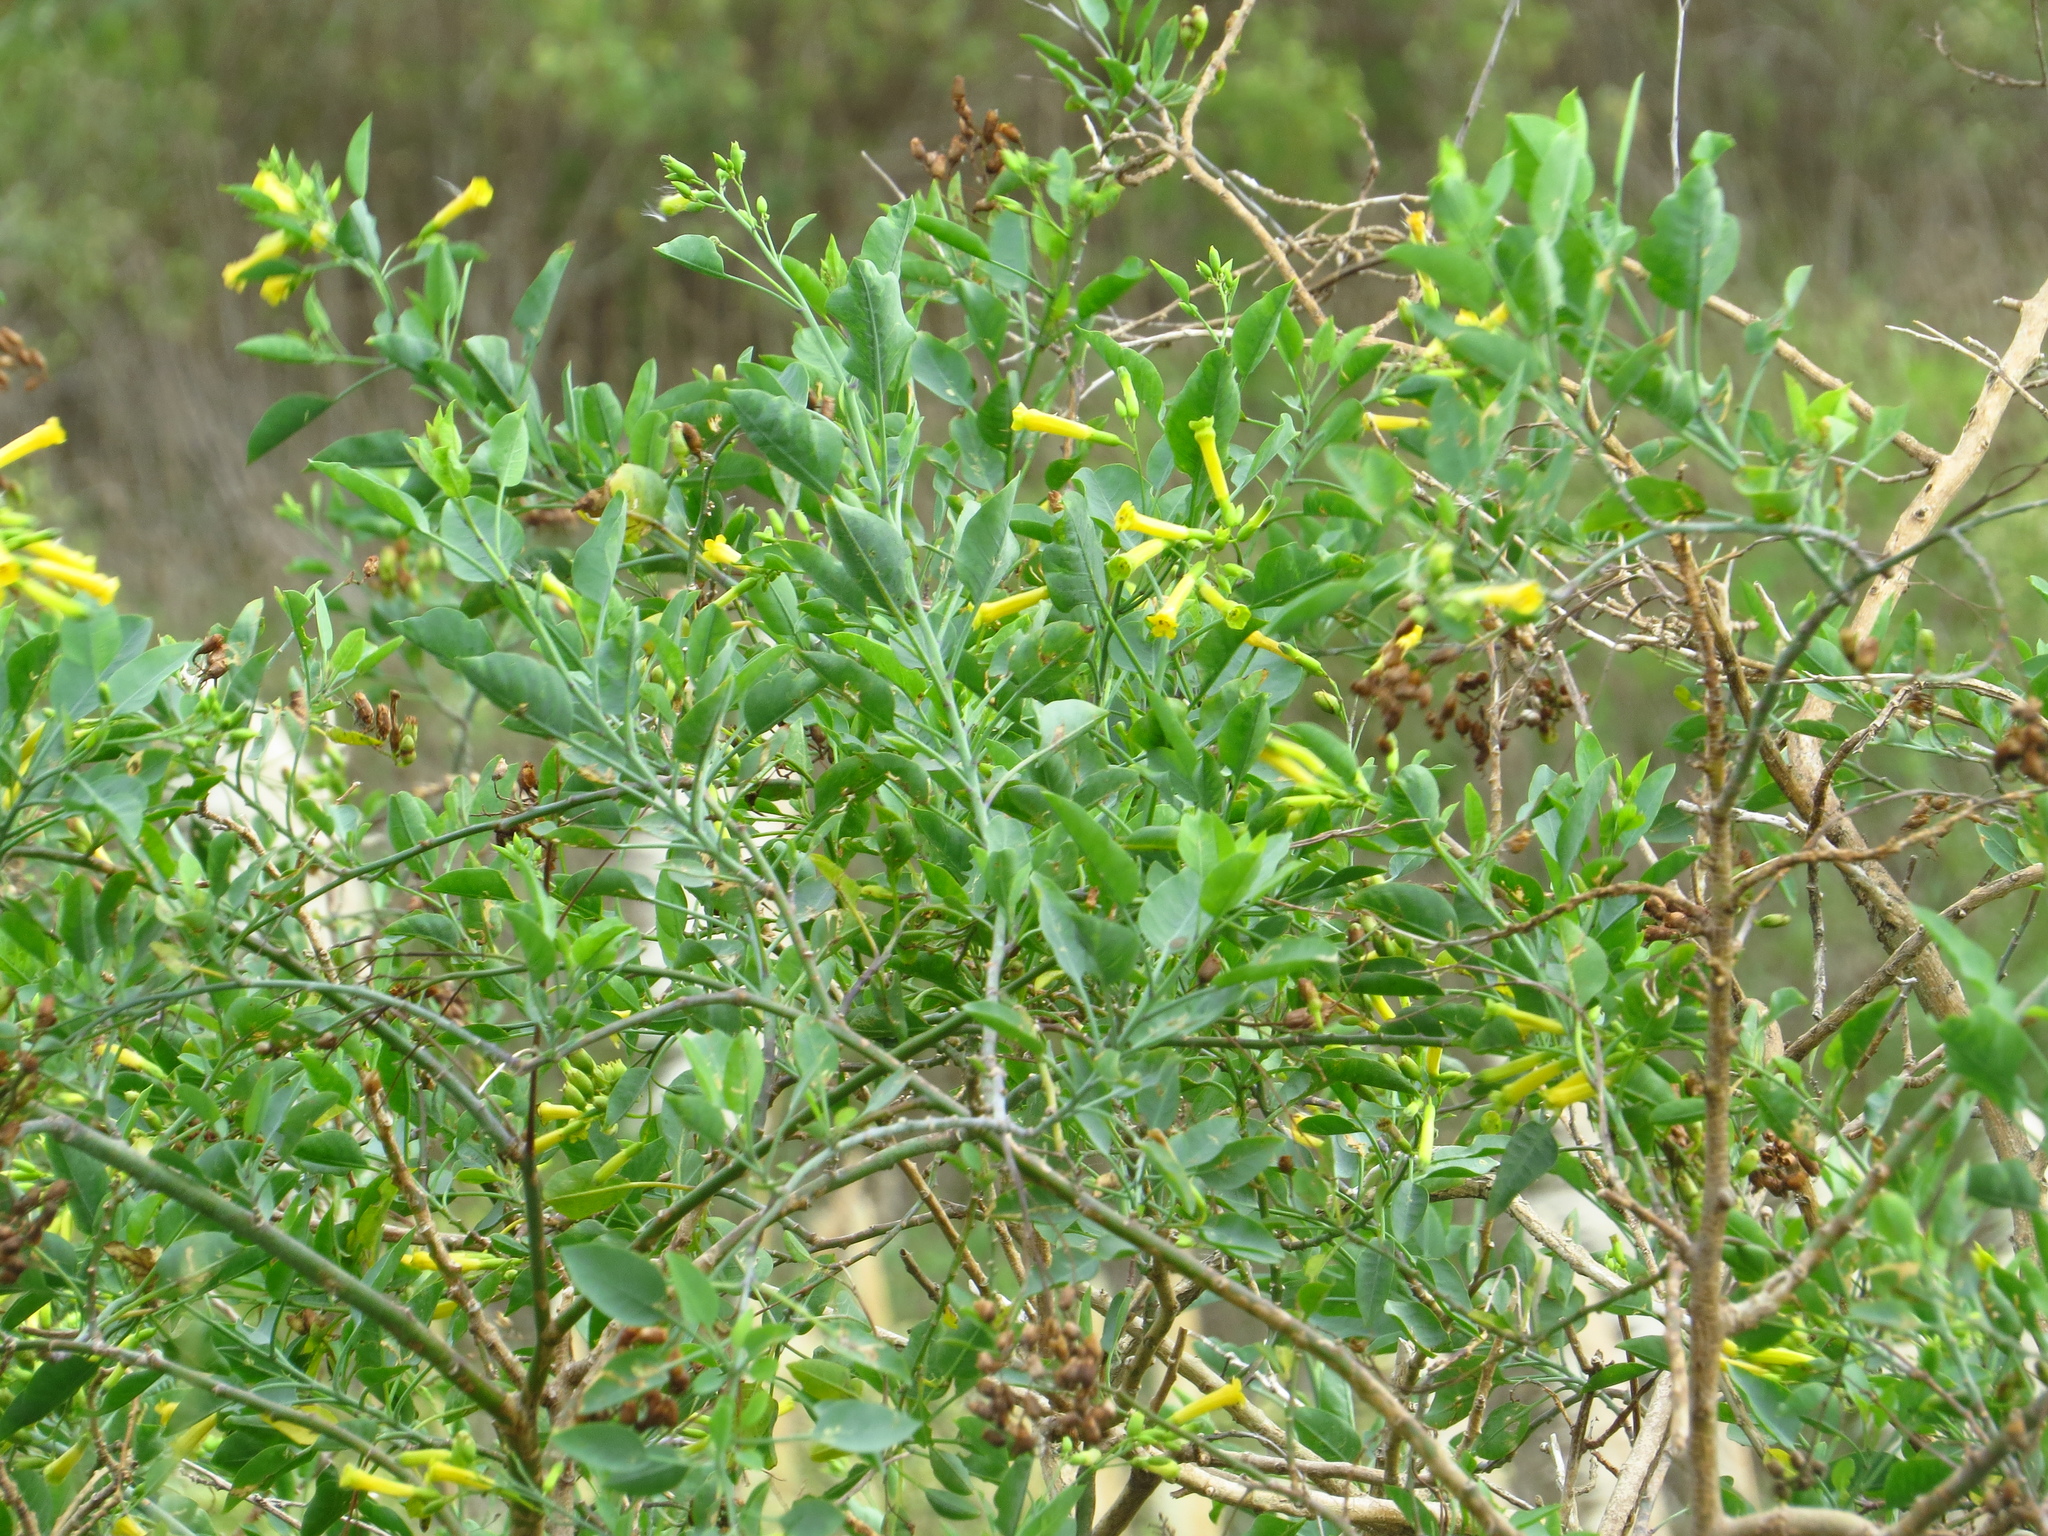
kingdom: Plantae
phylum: Tracheophyta
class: Magnoliopsida
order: Solanales
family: Solanaceae
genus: Nicotiana
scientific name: Nicotiana glauca
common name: Tree tobacco
